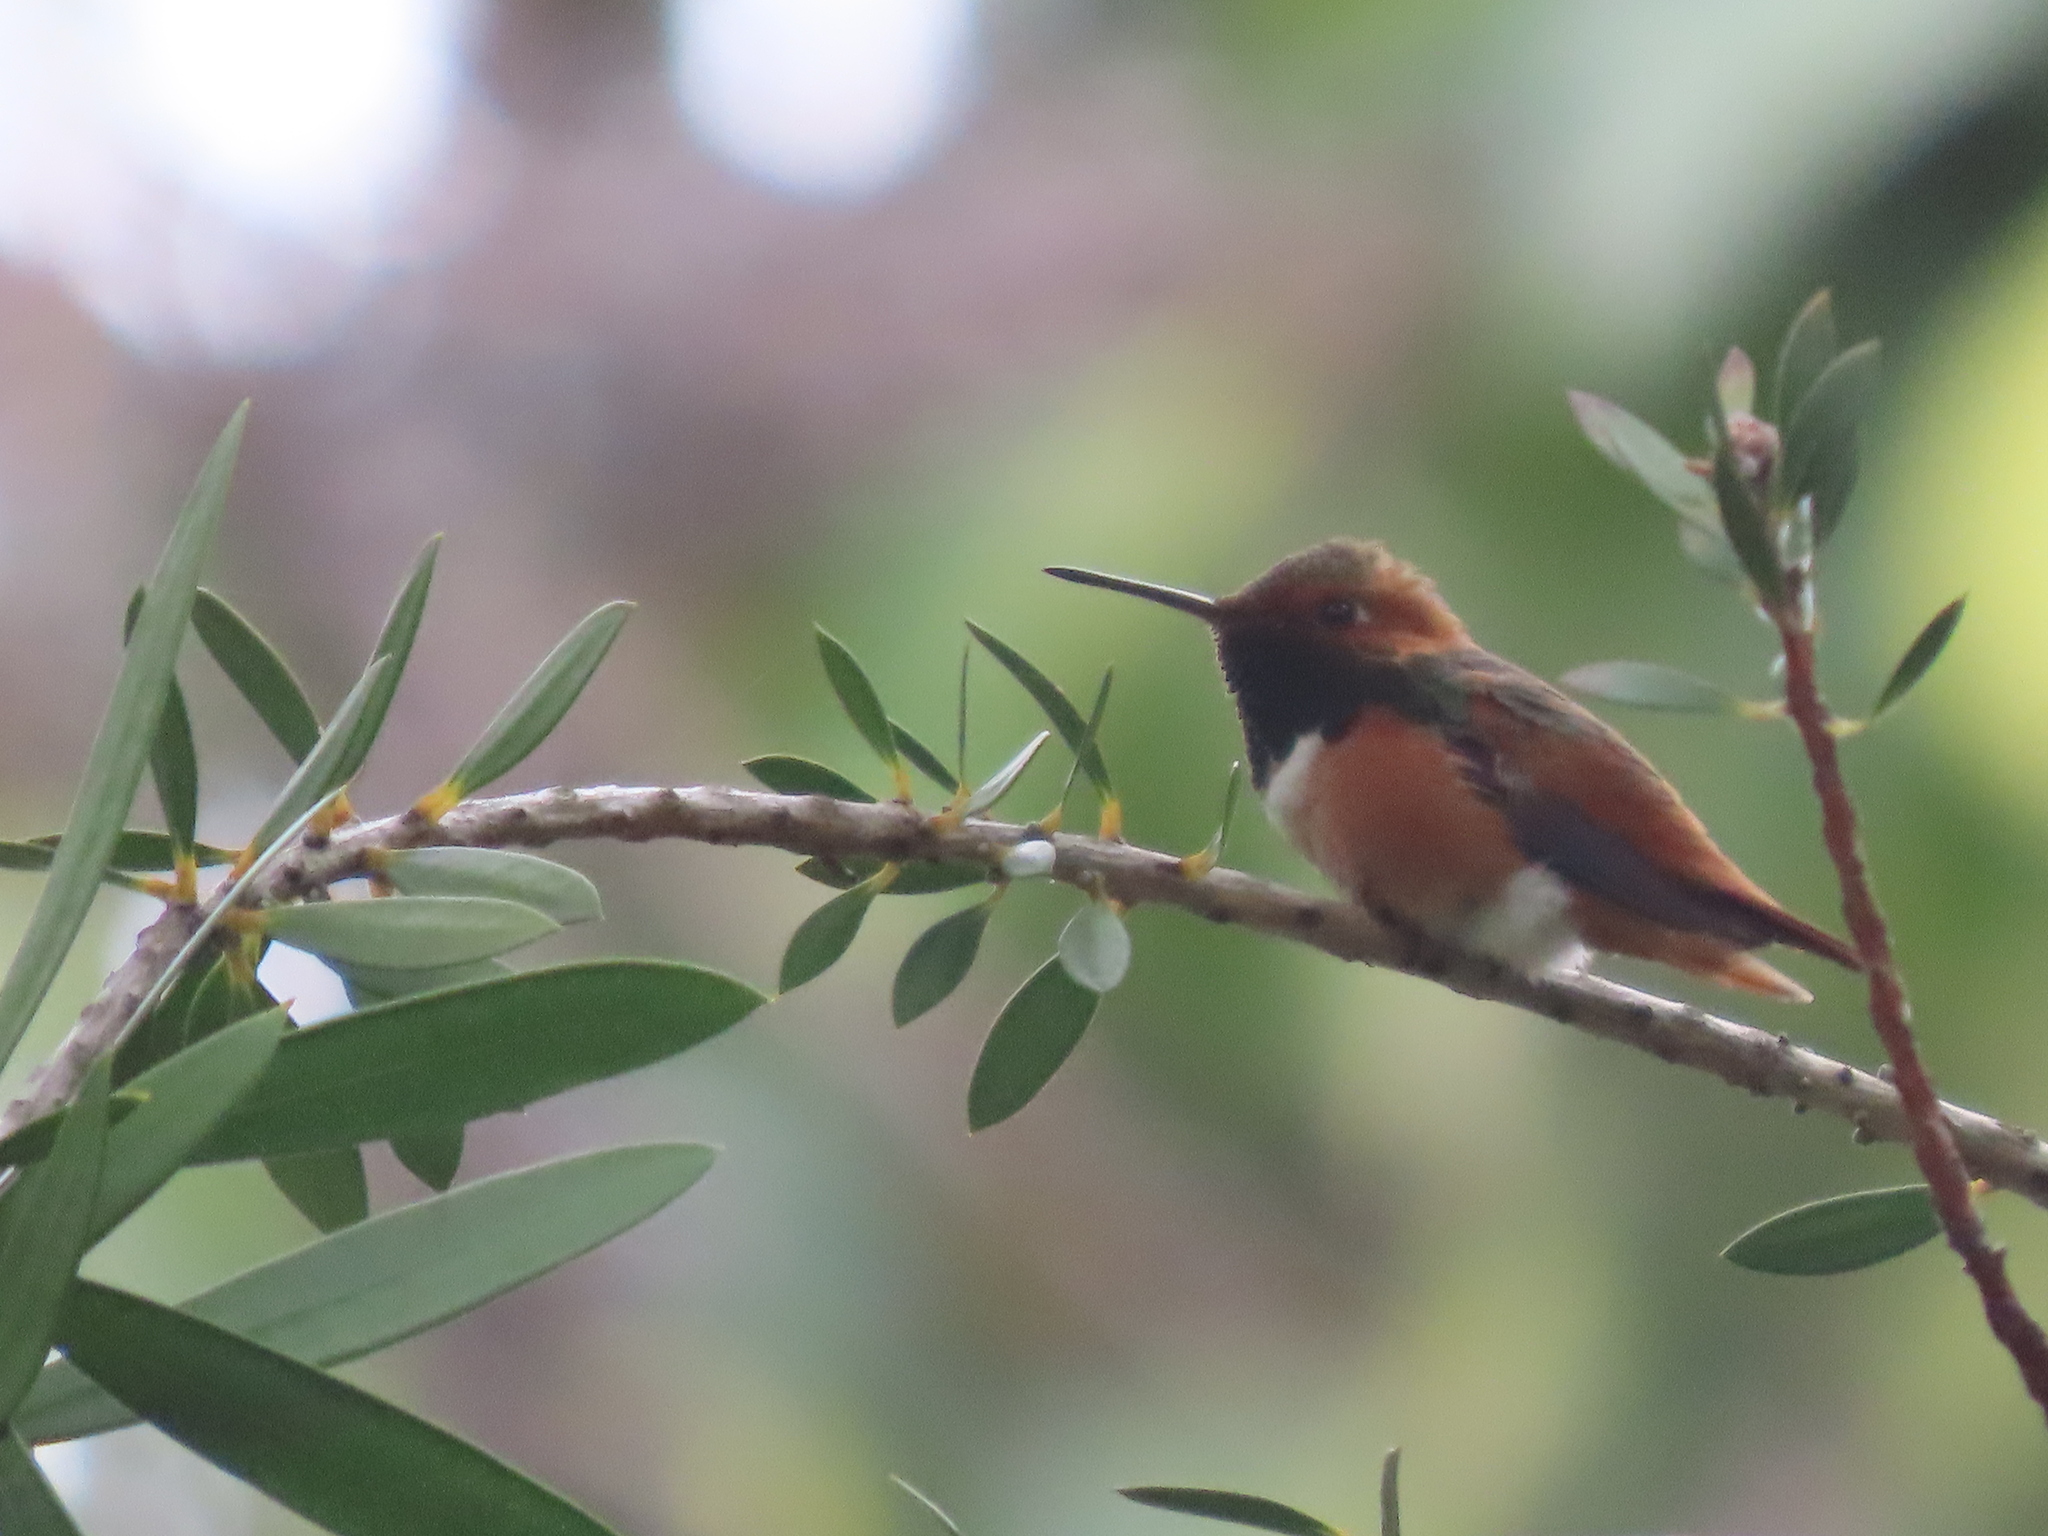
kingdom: Animalia
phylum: Chordata
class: Aves
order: Apodiformes
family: Trochilidae
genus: Selasphorus
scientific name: Selasphorus sasin
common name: Allen's hummingbird
